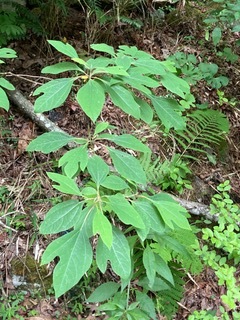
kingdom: Plantae
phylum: Tracheophyta
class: Magnoliopsida
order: Laurales
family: Lauraceae
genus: Sassafras
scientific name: Sassafras albidum
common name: Sassafras
